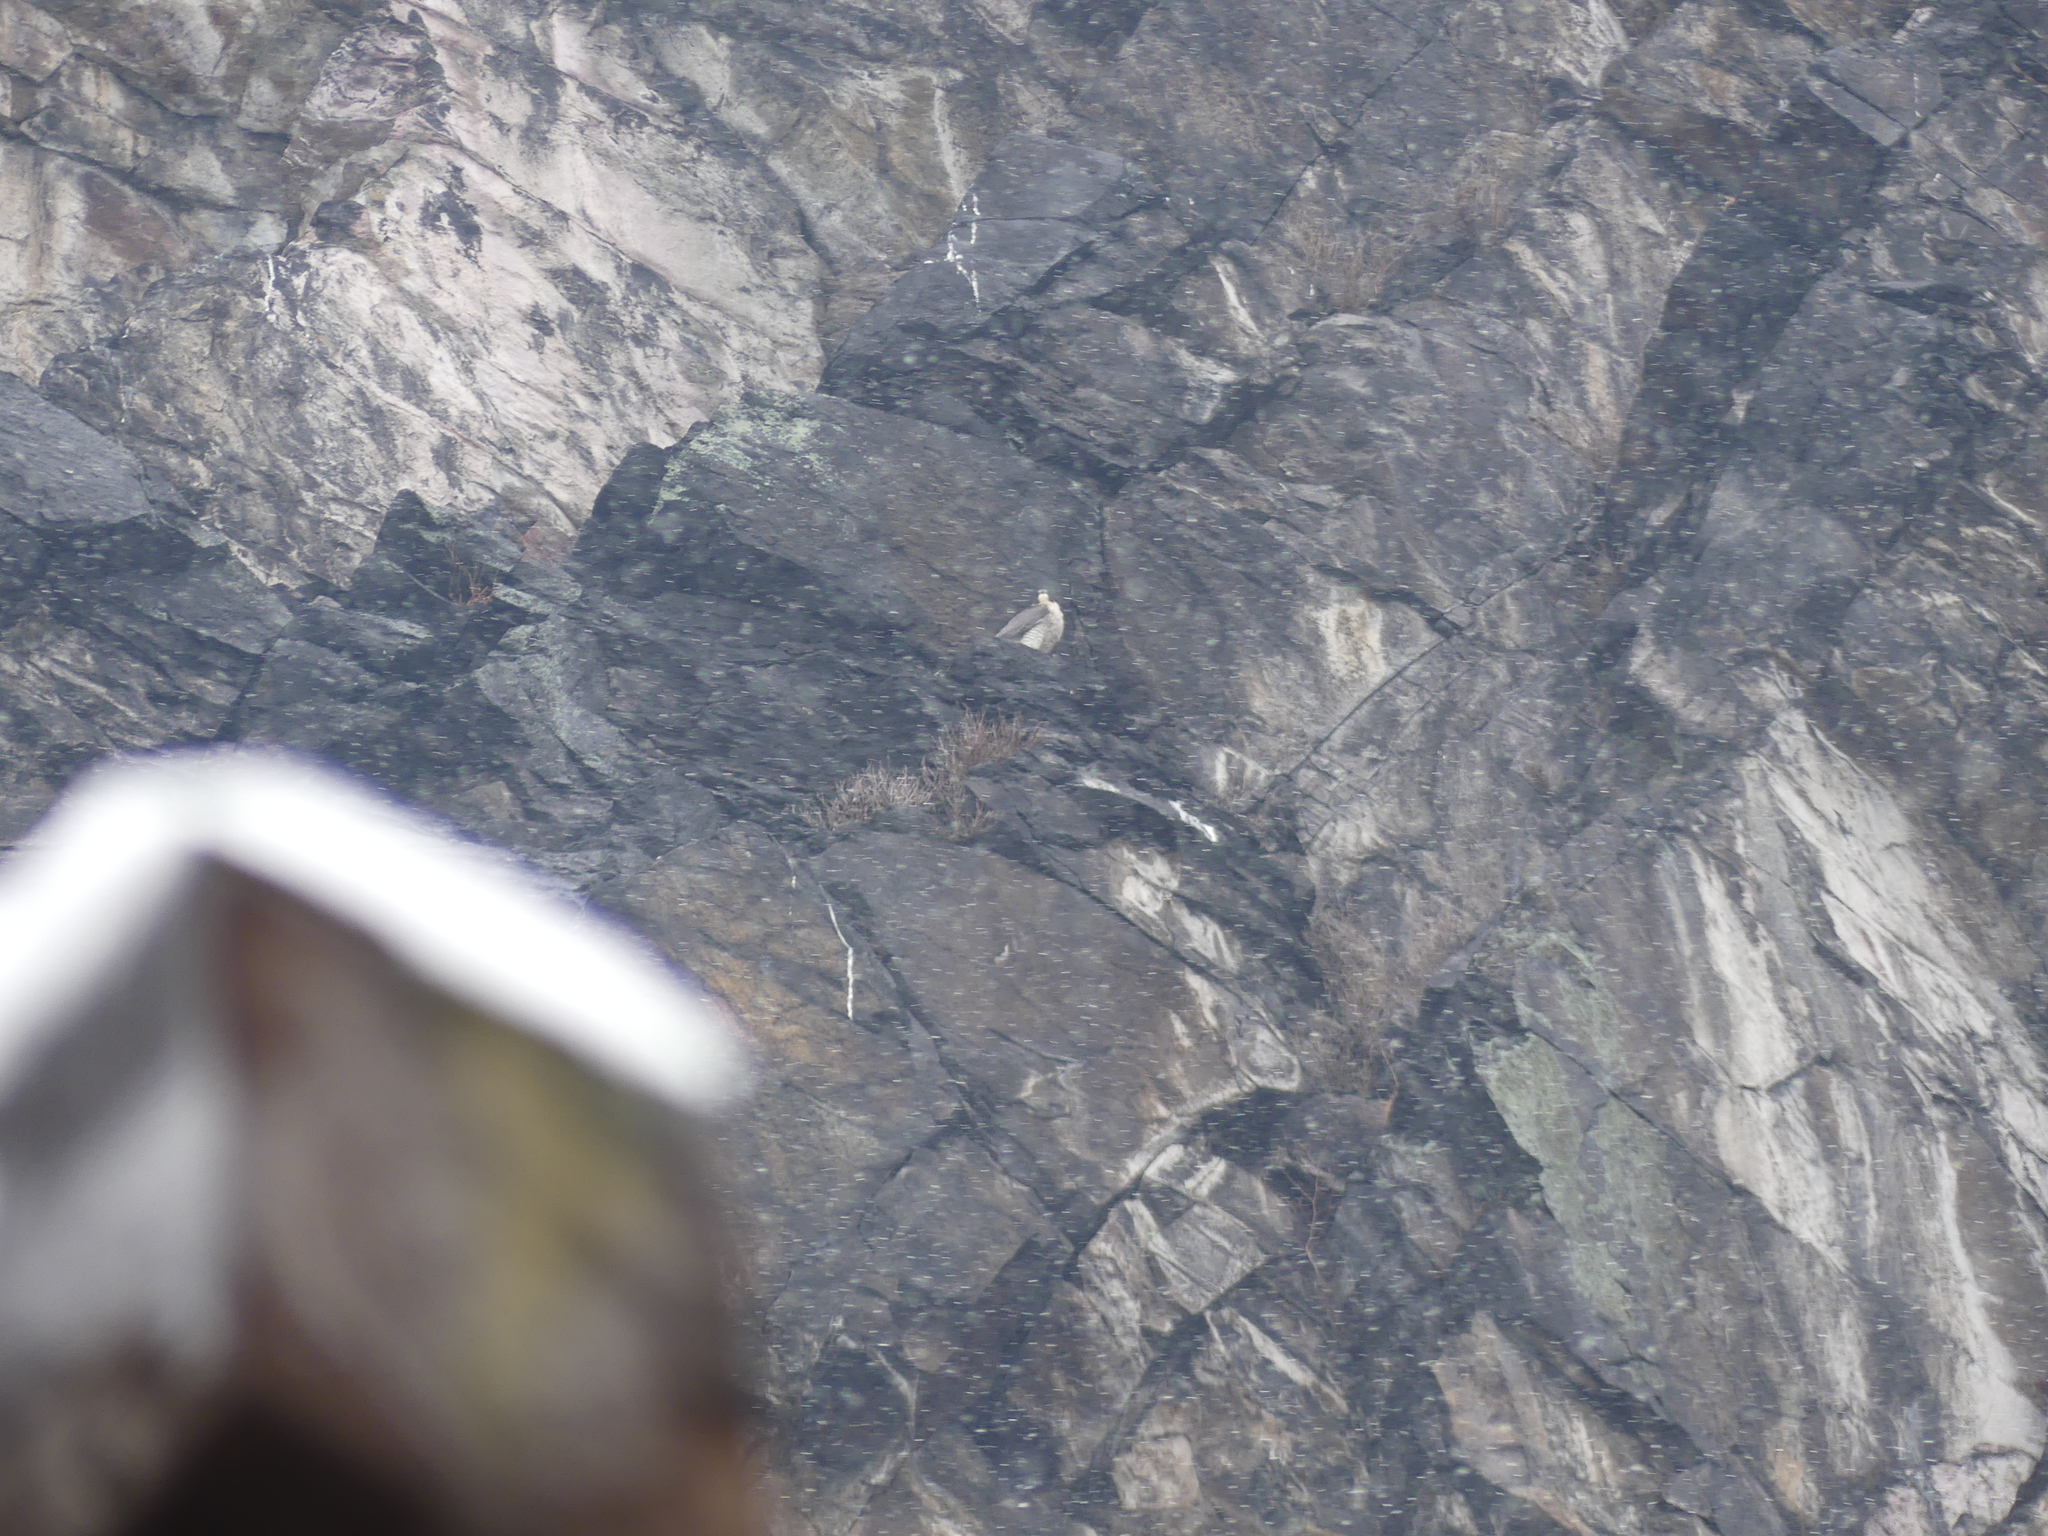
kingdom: Animalia
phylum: Chordata
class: Aves
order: Falconiformes
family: Falconidae
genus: Falco
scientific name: Falco peregrinus
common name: Peregrine falcon
